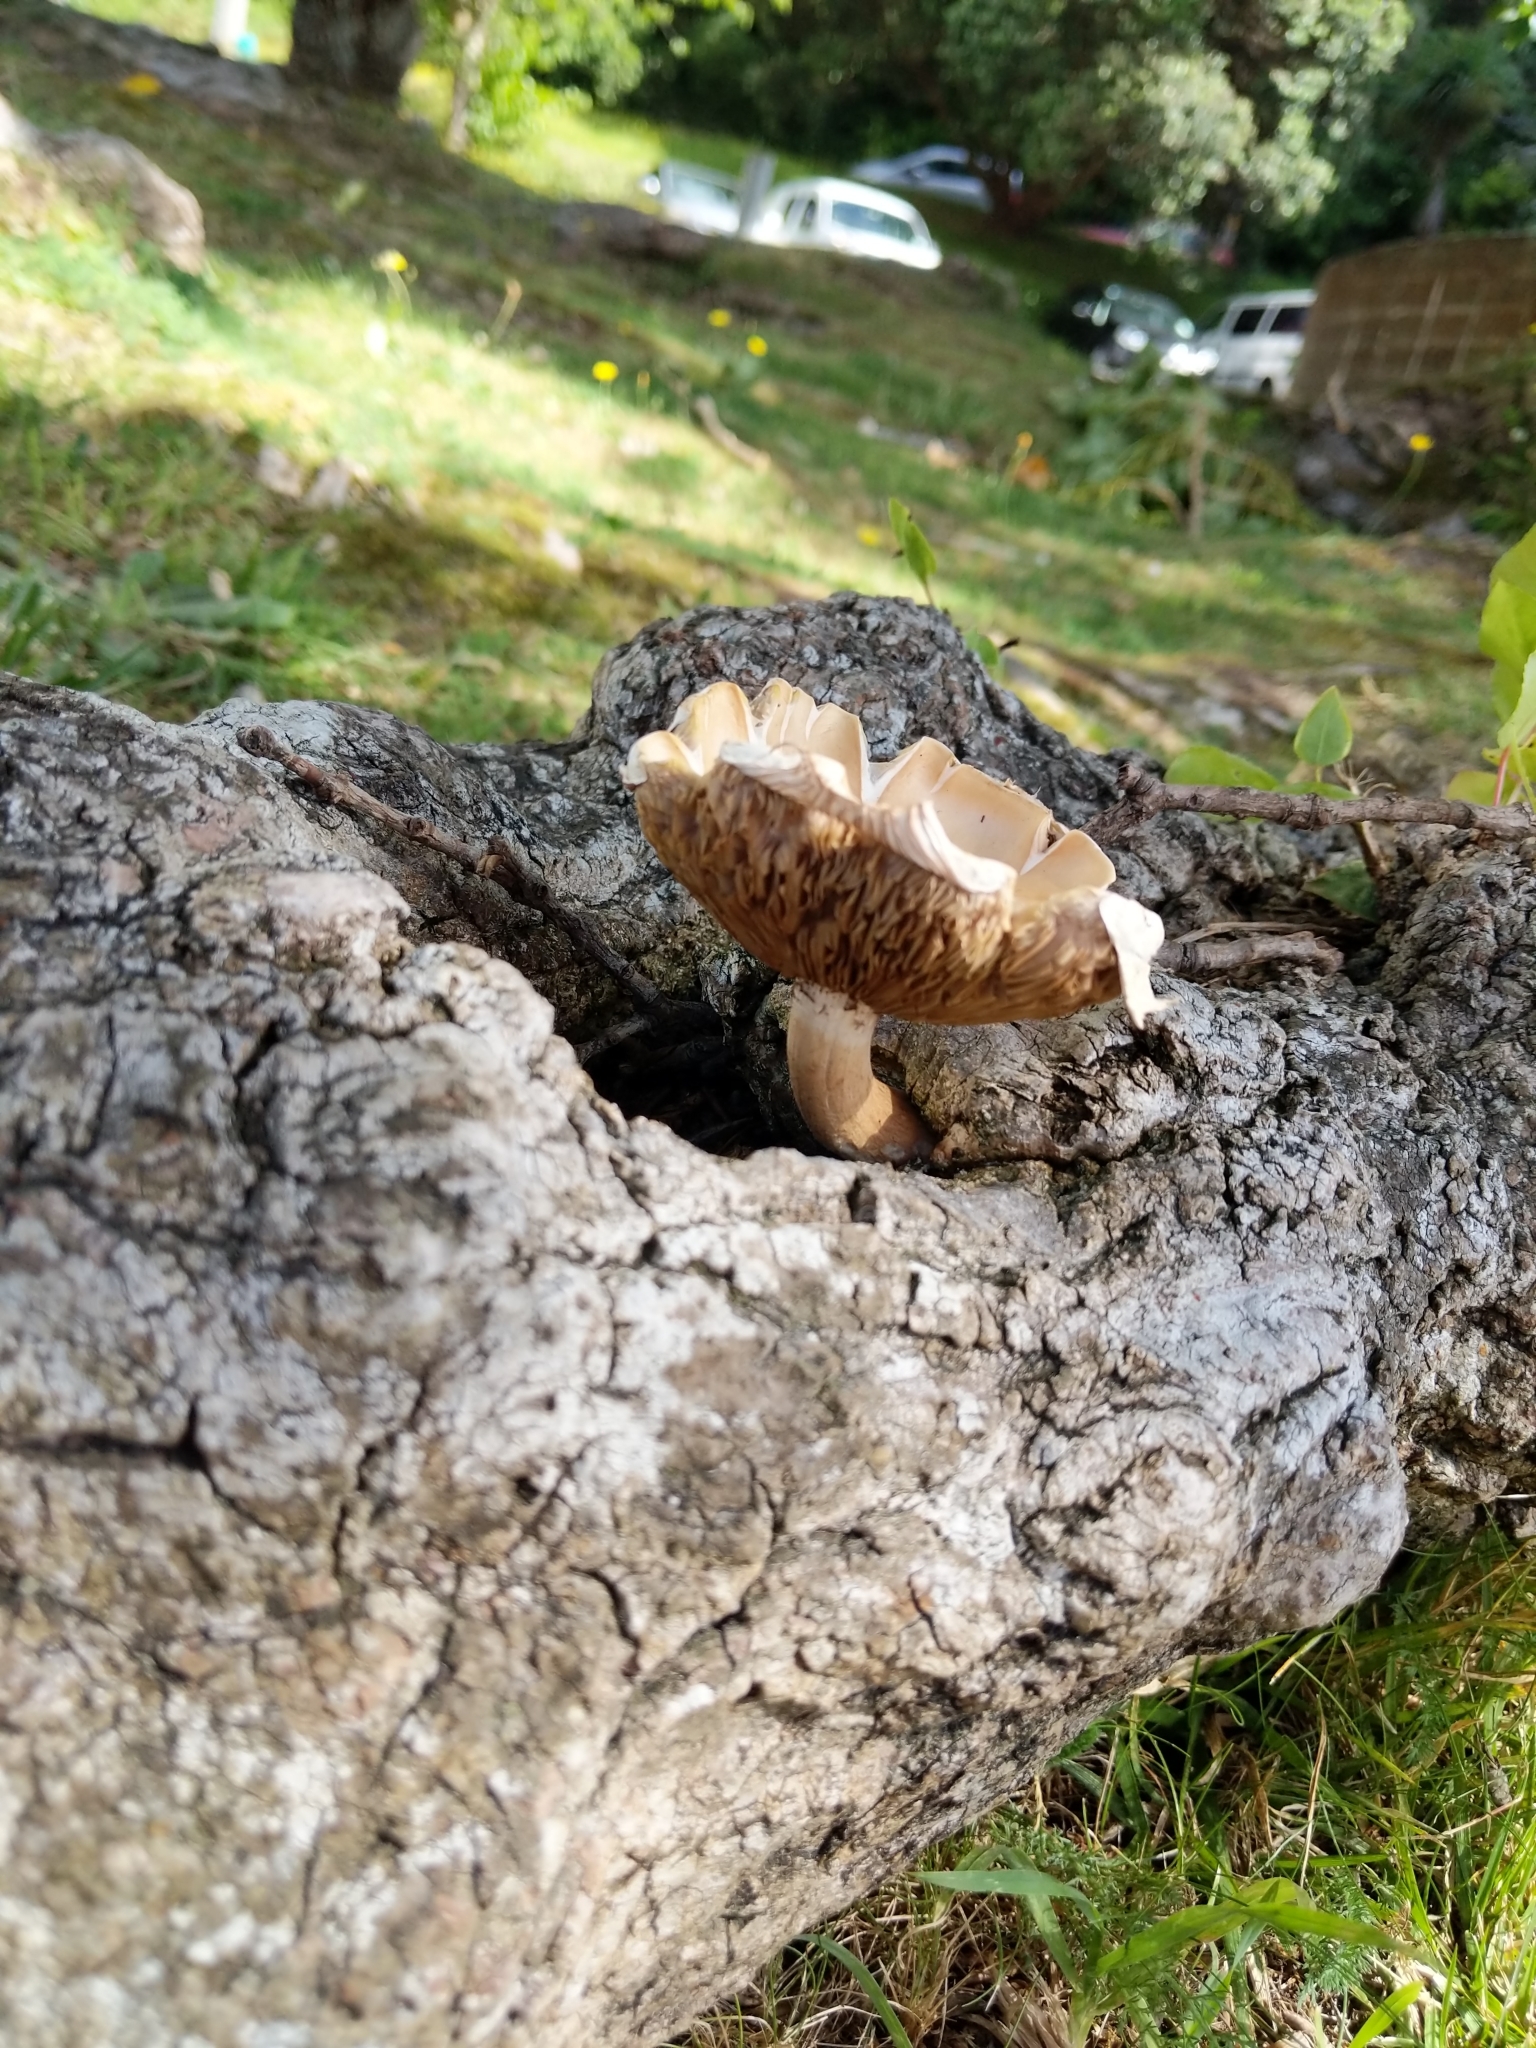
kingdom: Fungi
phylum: Basidiomycota
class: Agaricomycetes
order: Gloeophyllales
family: Gloeophyllaceae
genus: Neolentinus
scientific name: Neolentinus lepideus
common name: Scaly sawgill
